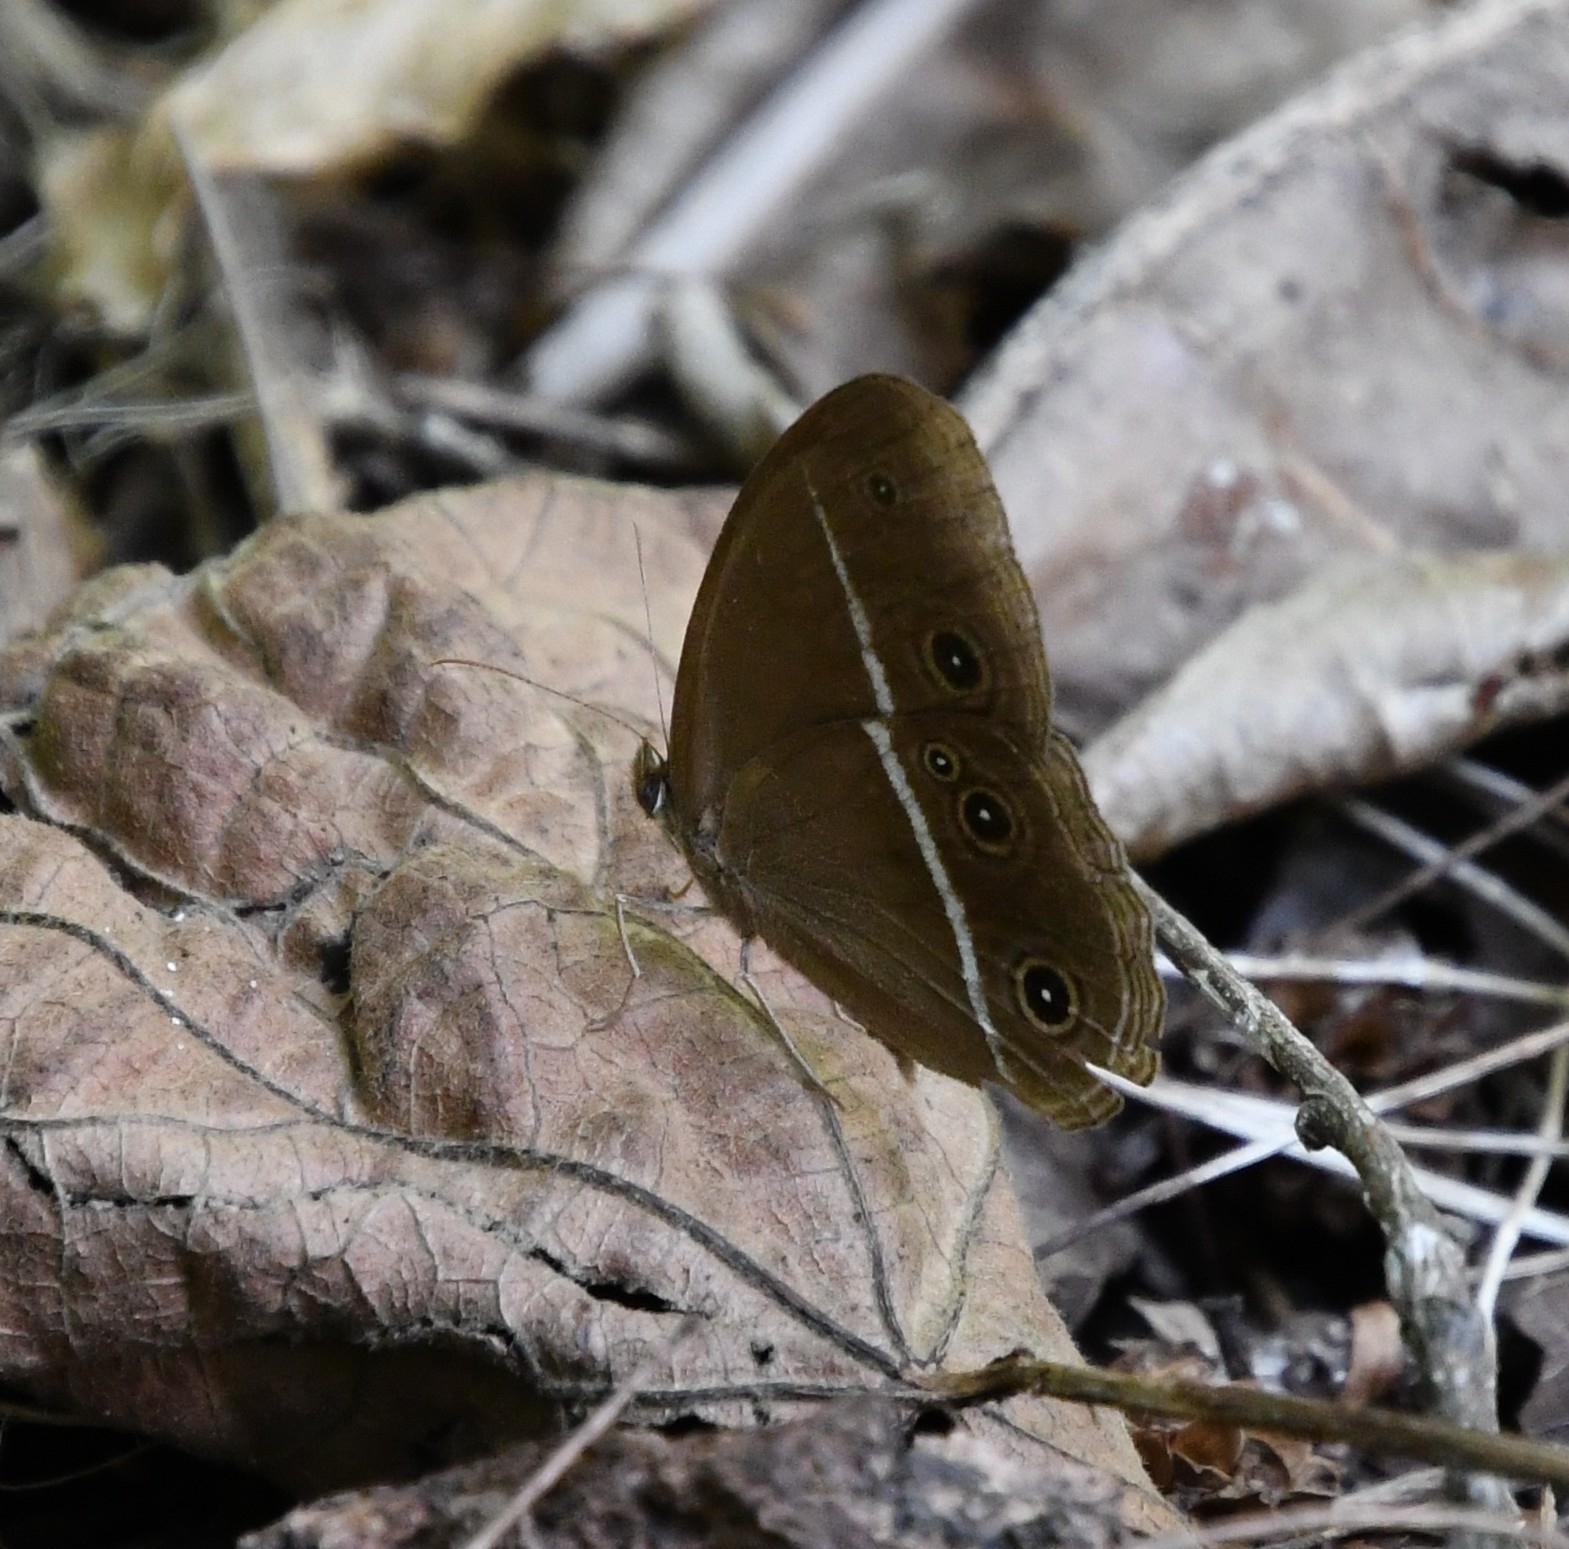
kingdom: Animalia
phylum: Arthropoda
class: Insecta
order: Lepidoptera
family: Nymphalidae
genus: Orsotriaena
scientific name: Orsotriaena medus
